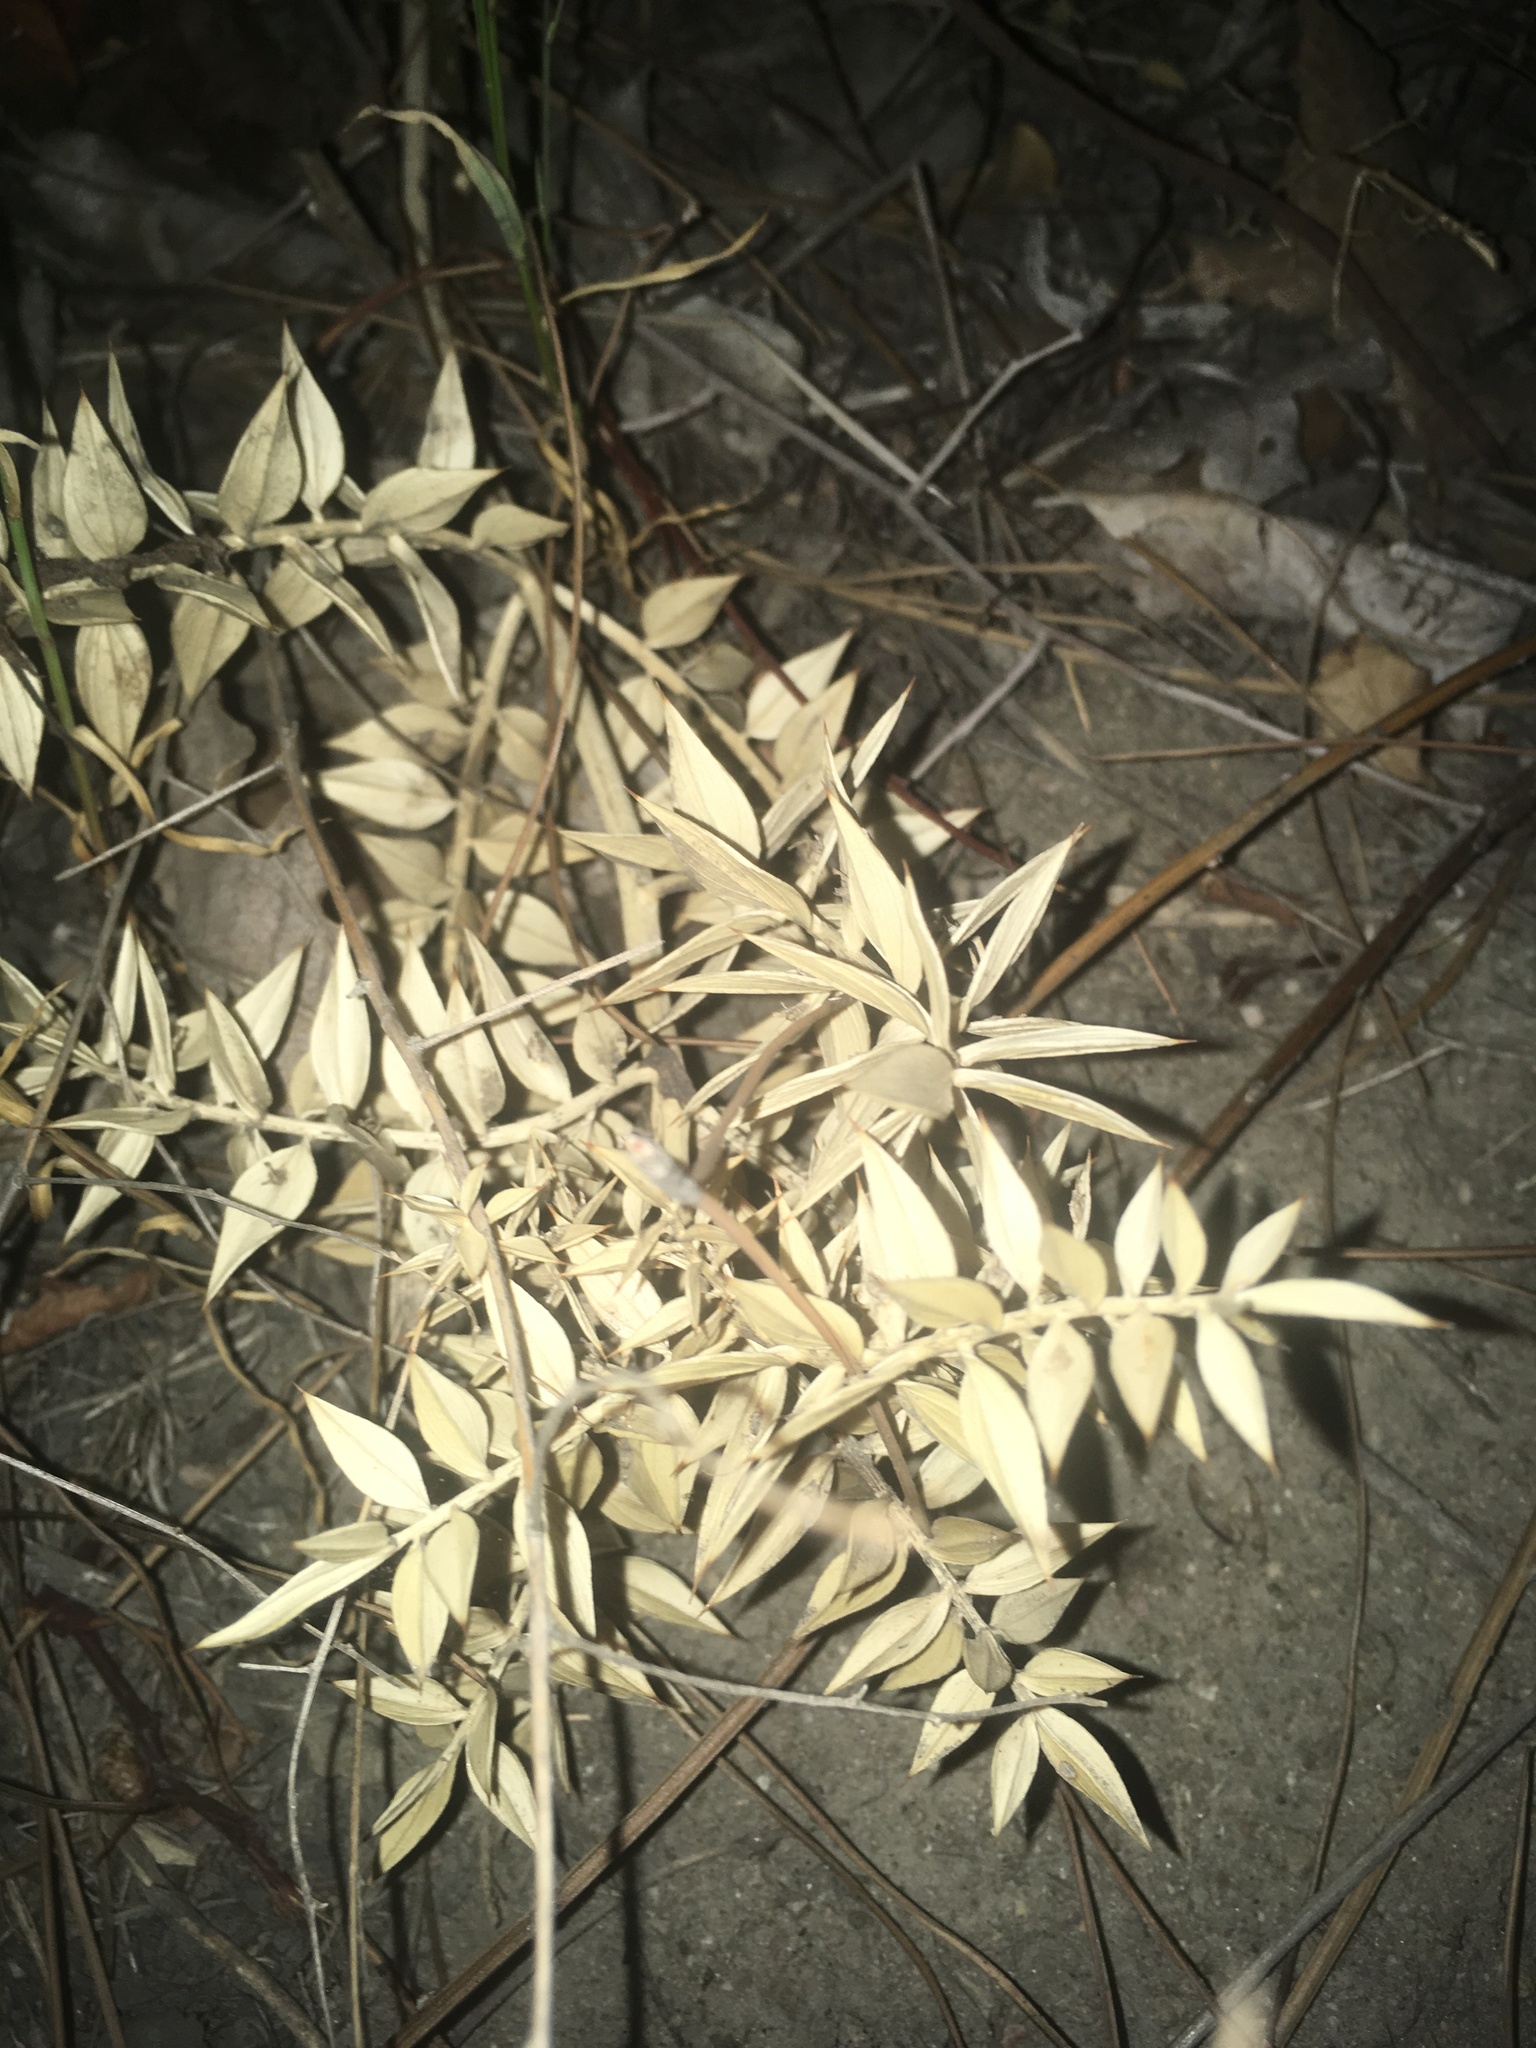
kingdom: Plantae
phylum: Tracheophyta
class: Liliopsida
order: Asparagales
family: Asparagaceae
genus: Ruscus
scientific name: Ruscus aculeatus
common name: Butcher's-broom
